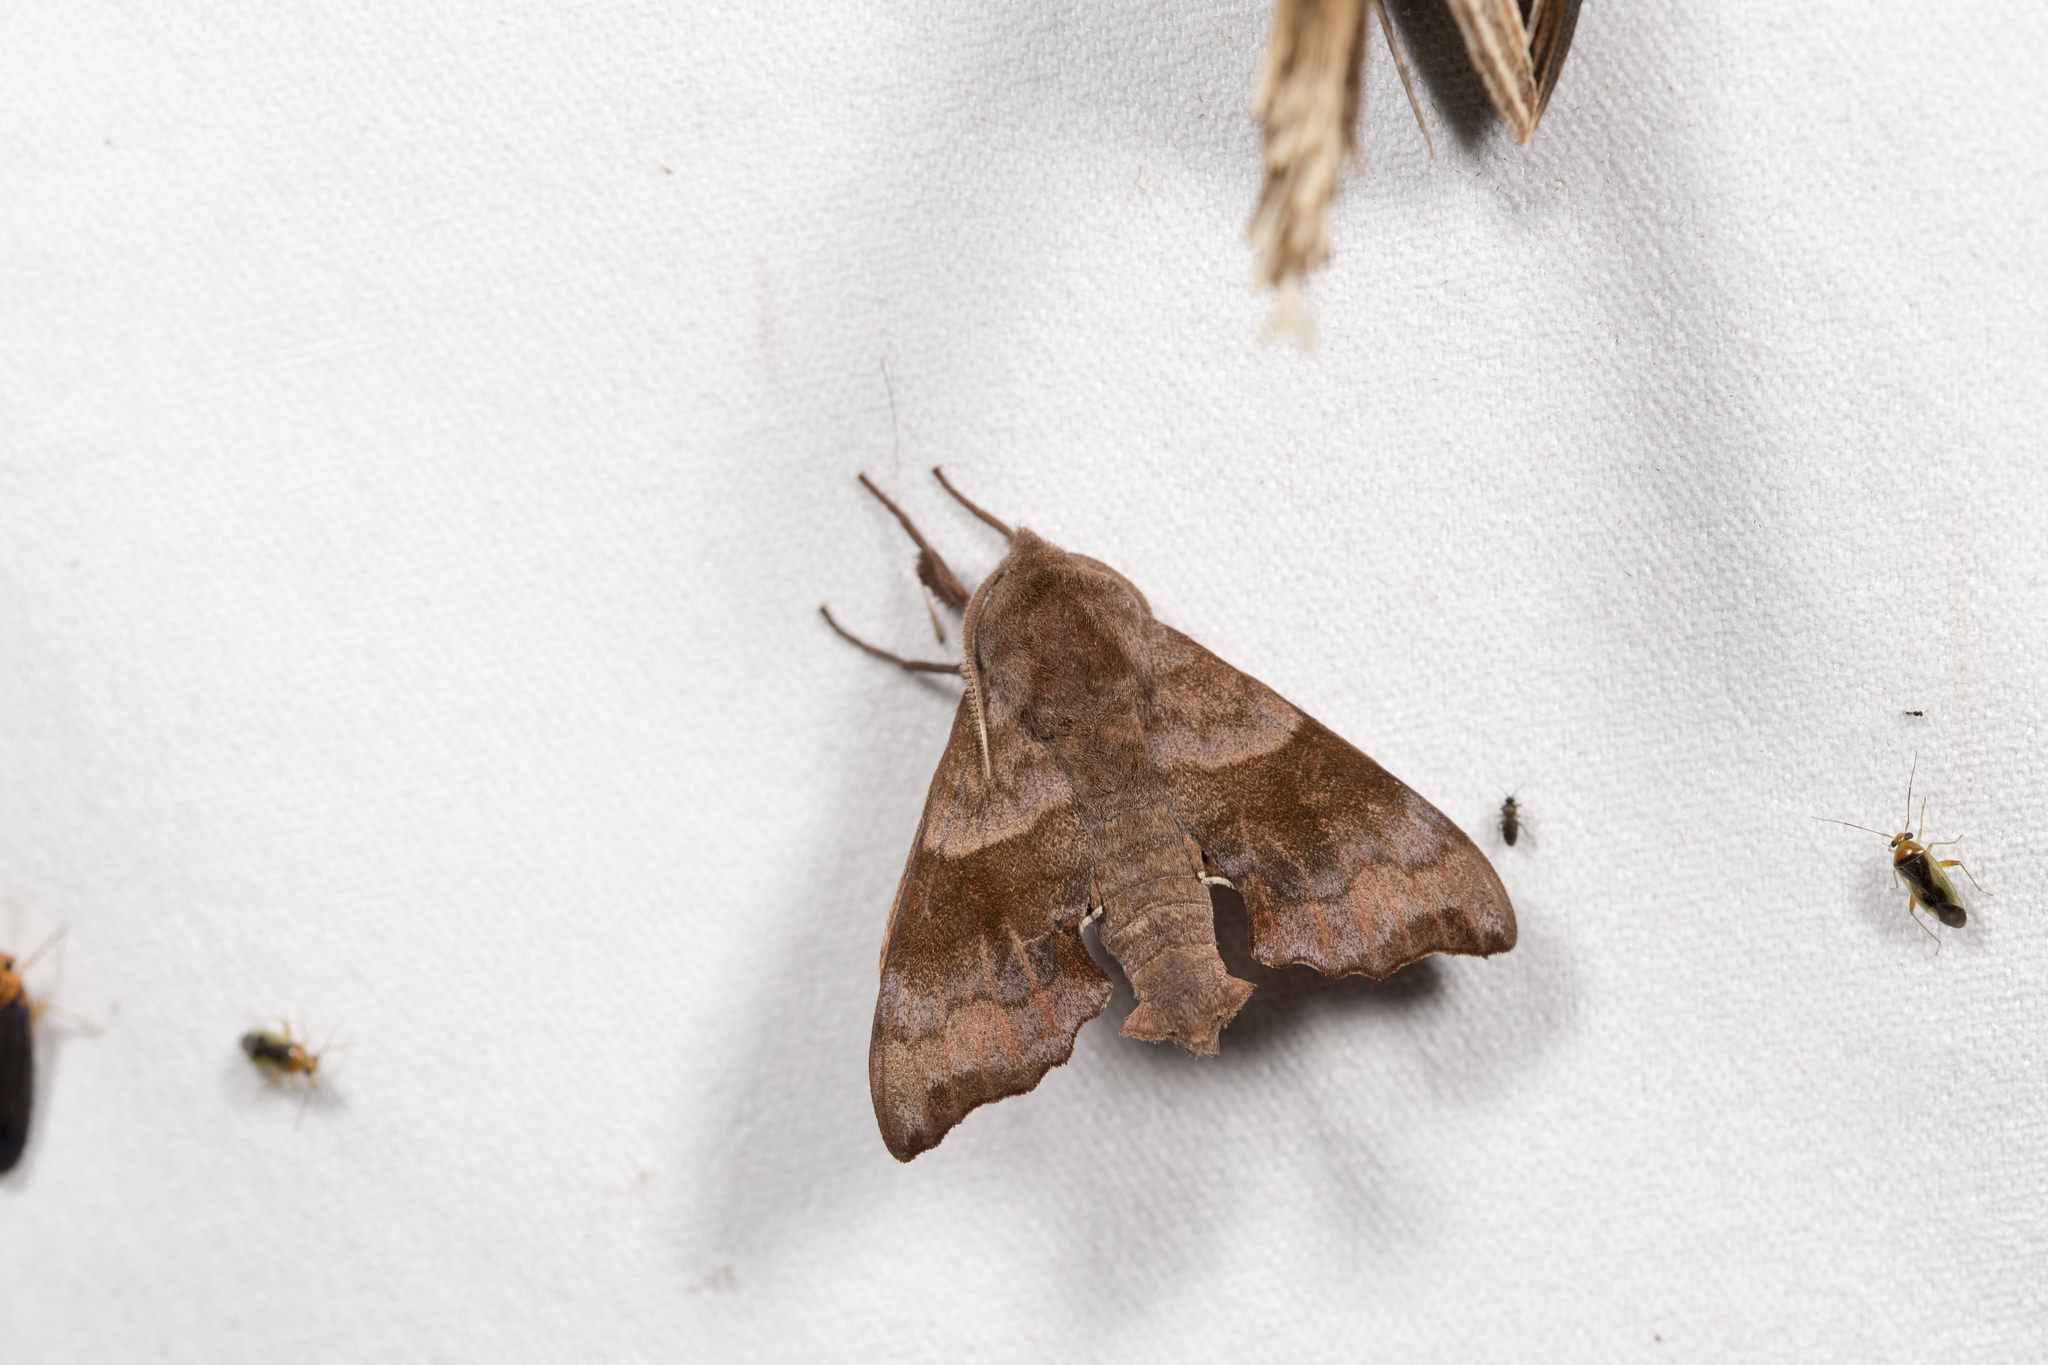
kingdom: Animalia
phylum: Arthropoda
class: Insecta
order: Lepidoptera
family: Sphingidae
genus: Cypoides
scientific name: Cypoides chinensis
